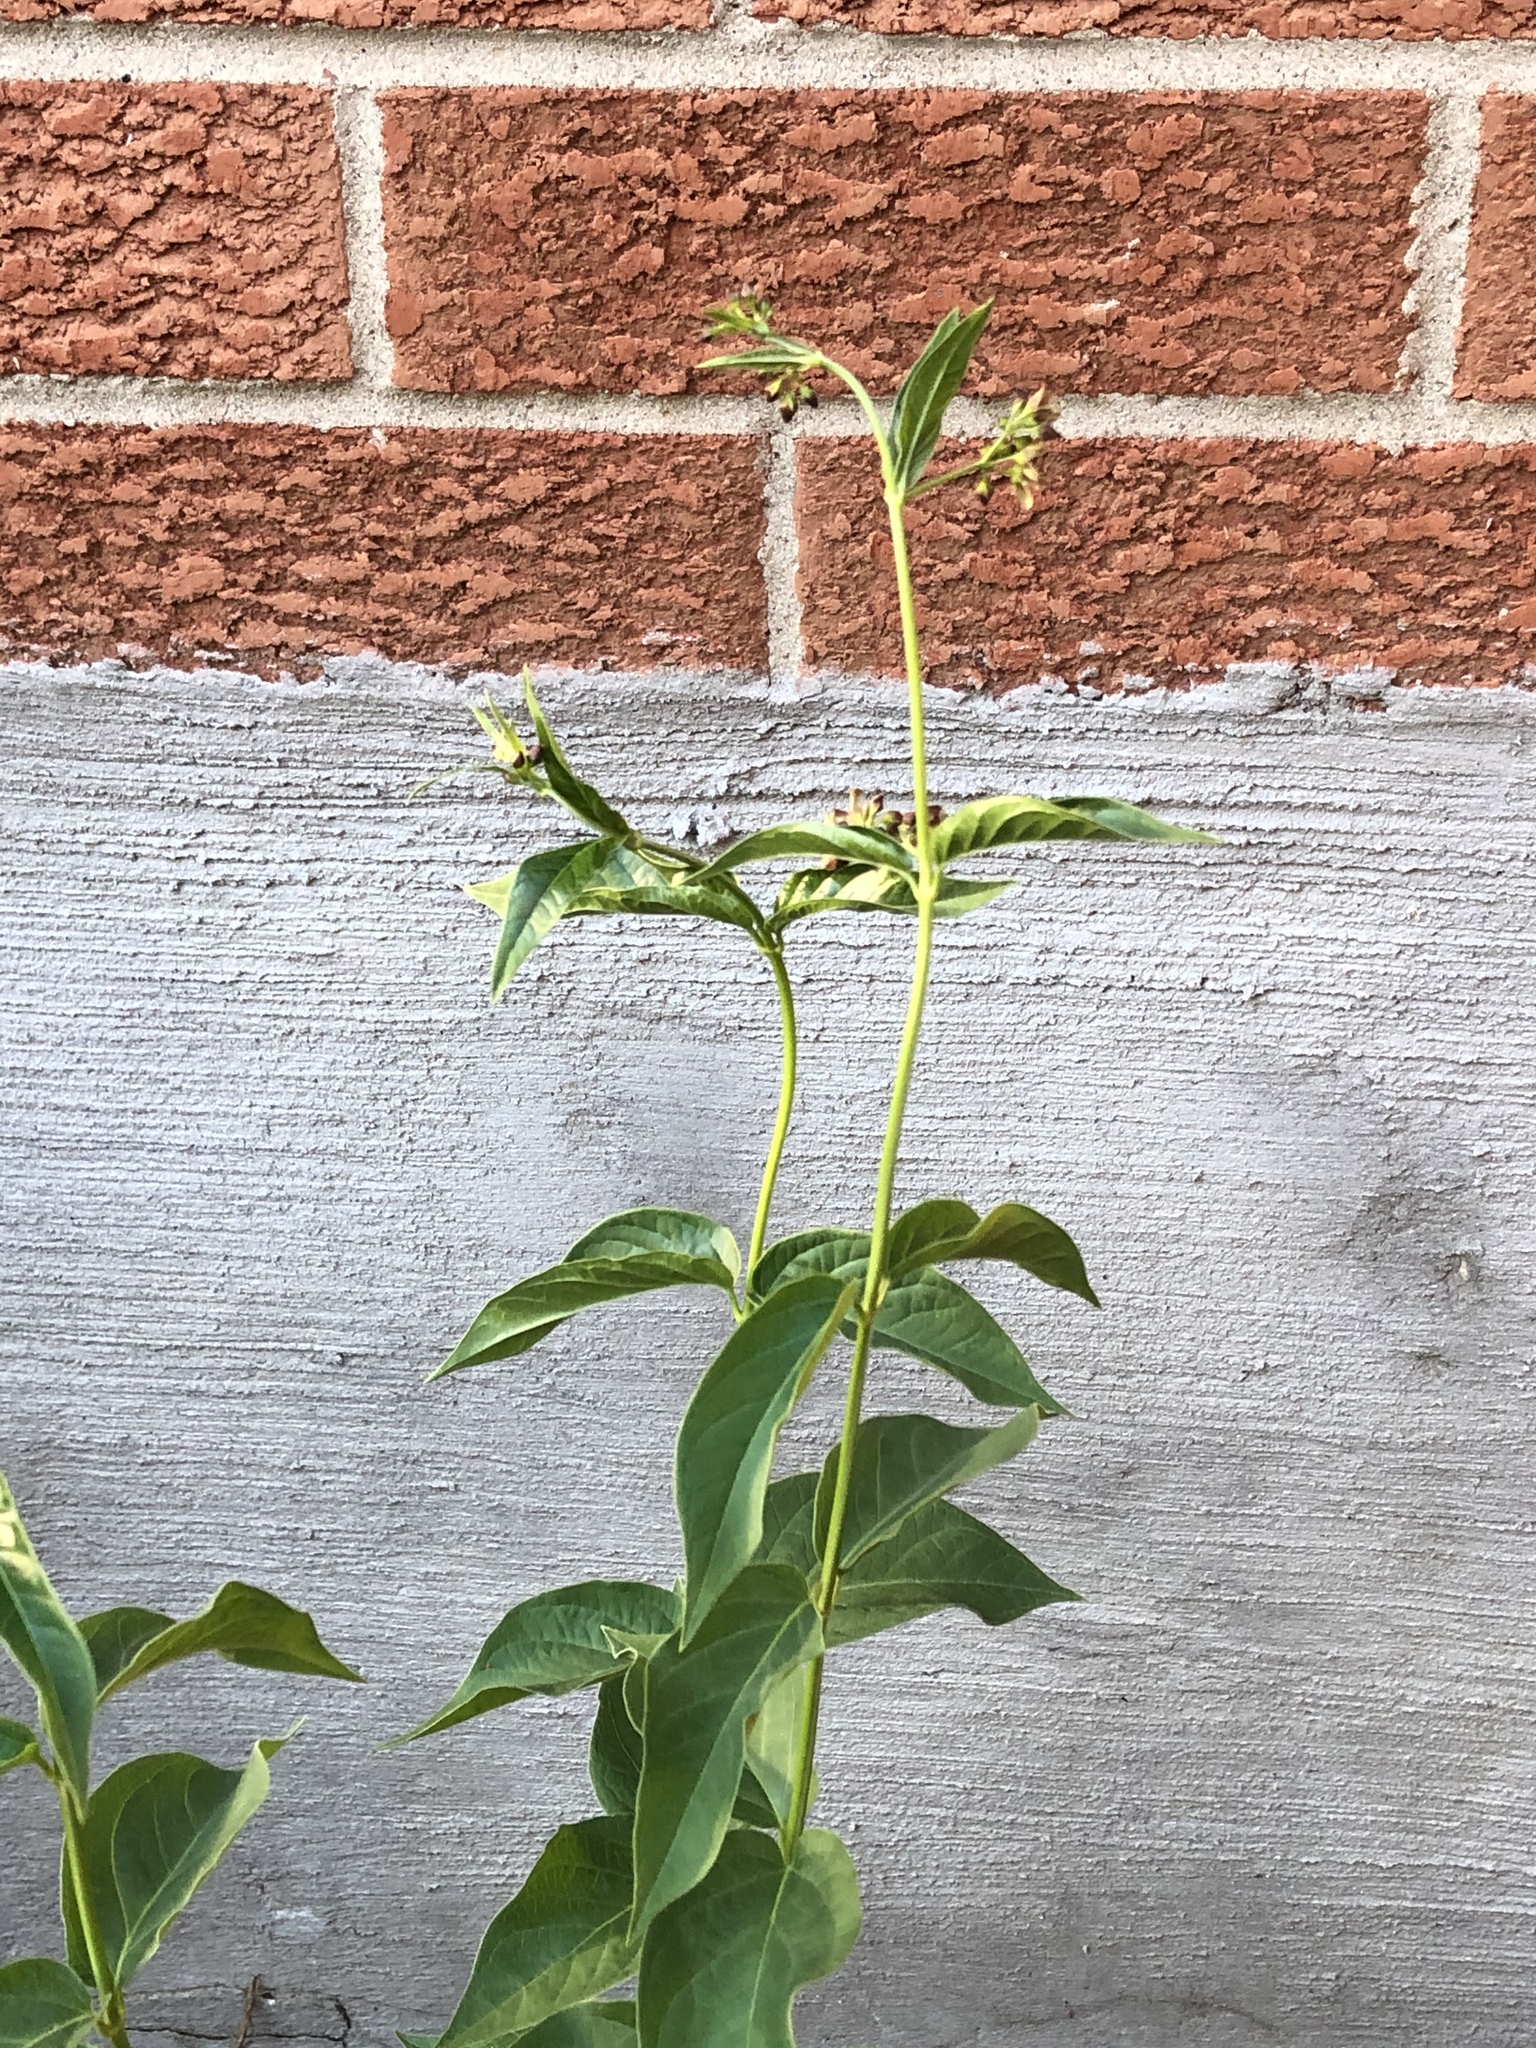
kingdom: Plantae
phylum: Tracheophyta
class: Magnoliopsida
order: Gentianales
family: Apocynaceae
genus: Vincetoxicum
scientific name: Vincetoxicum rossicum
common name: Dog-strangling vine
